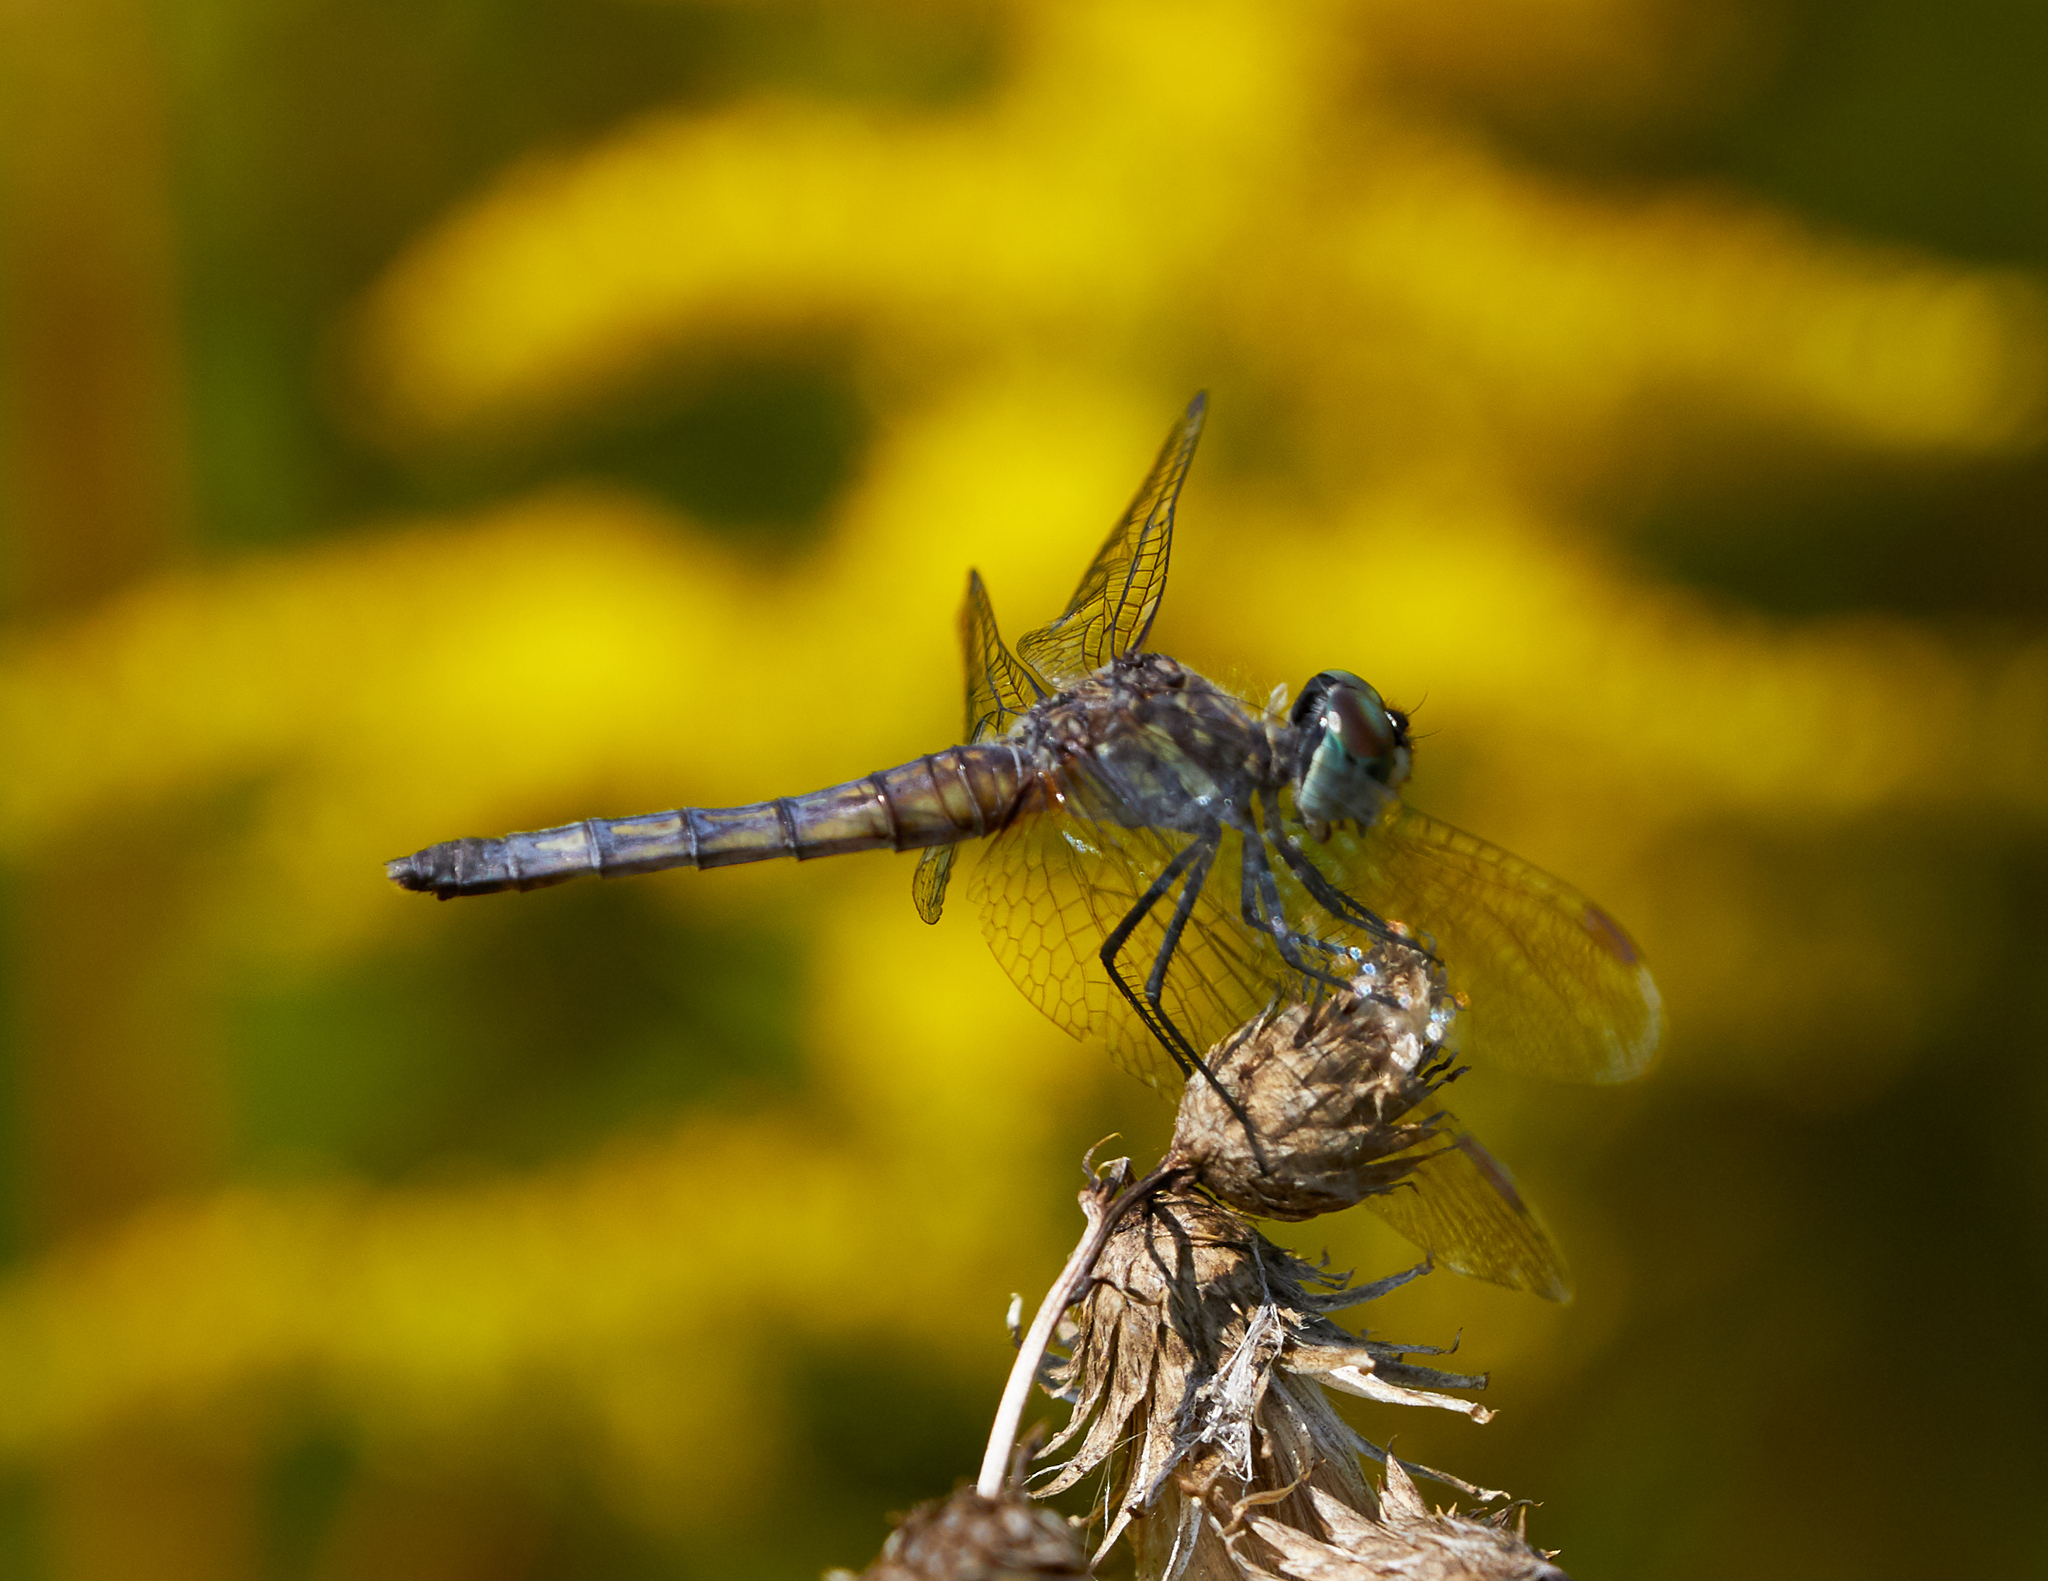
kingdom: Animalia
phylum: Arthropoda
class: Insecta
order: Odonata
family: Libellulidae
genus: Pachydiplax
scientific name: Pachydiplax longipennis
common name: Blue dasher
